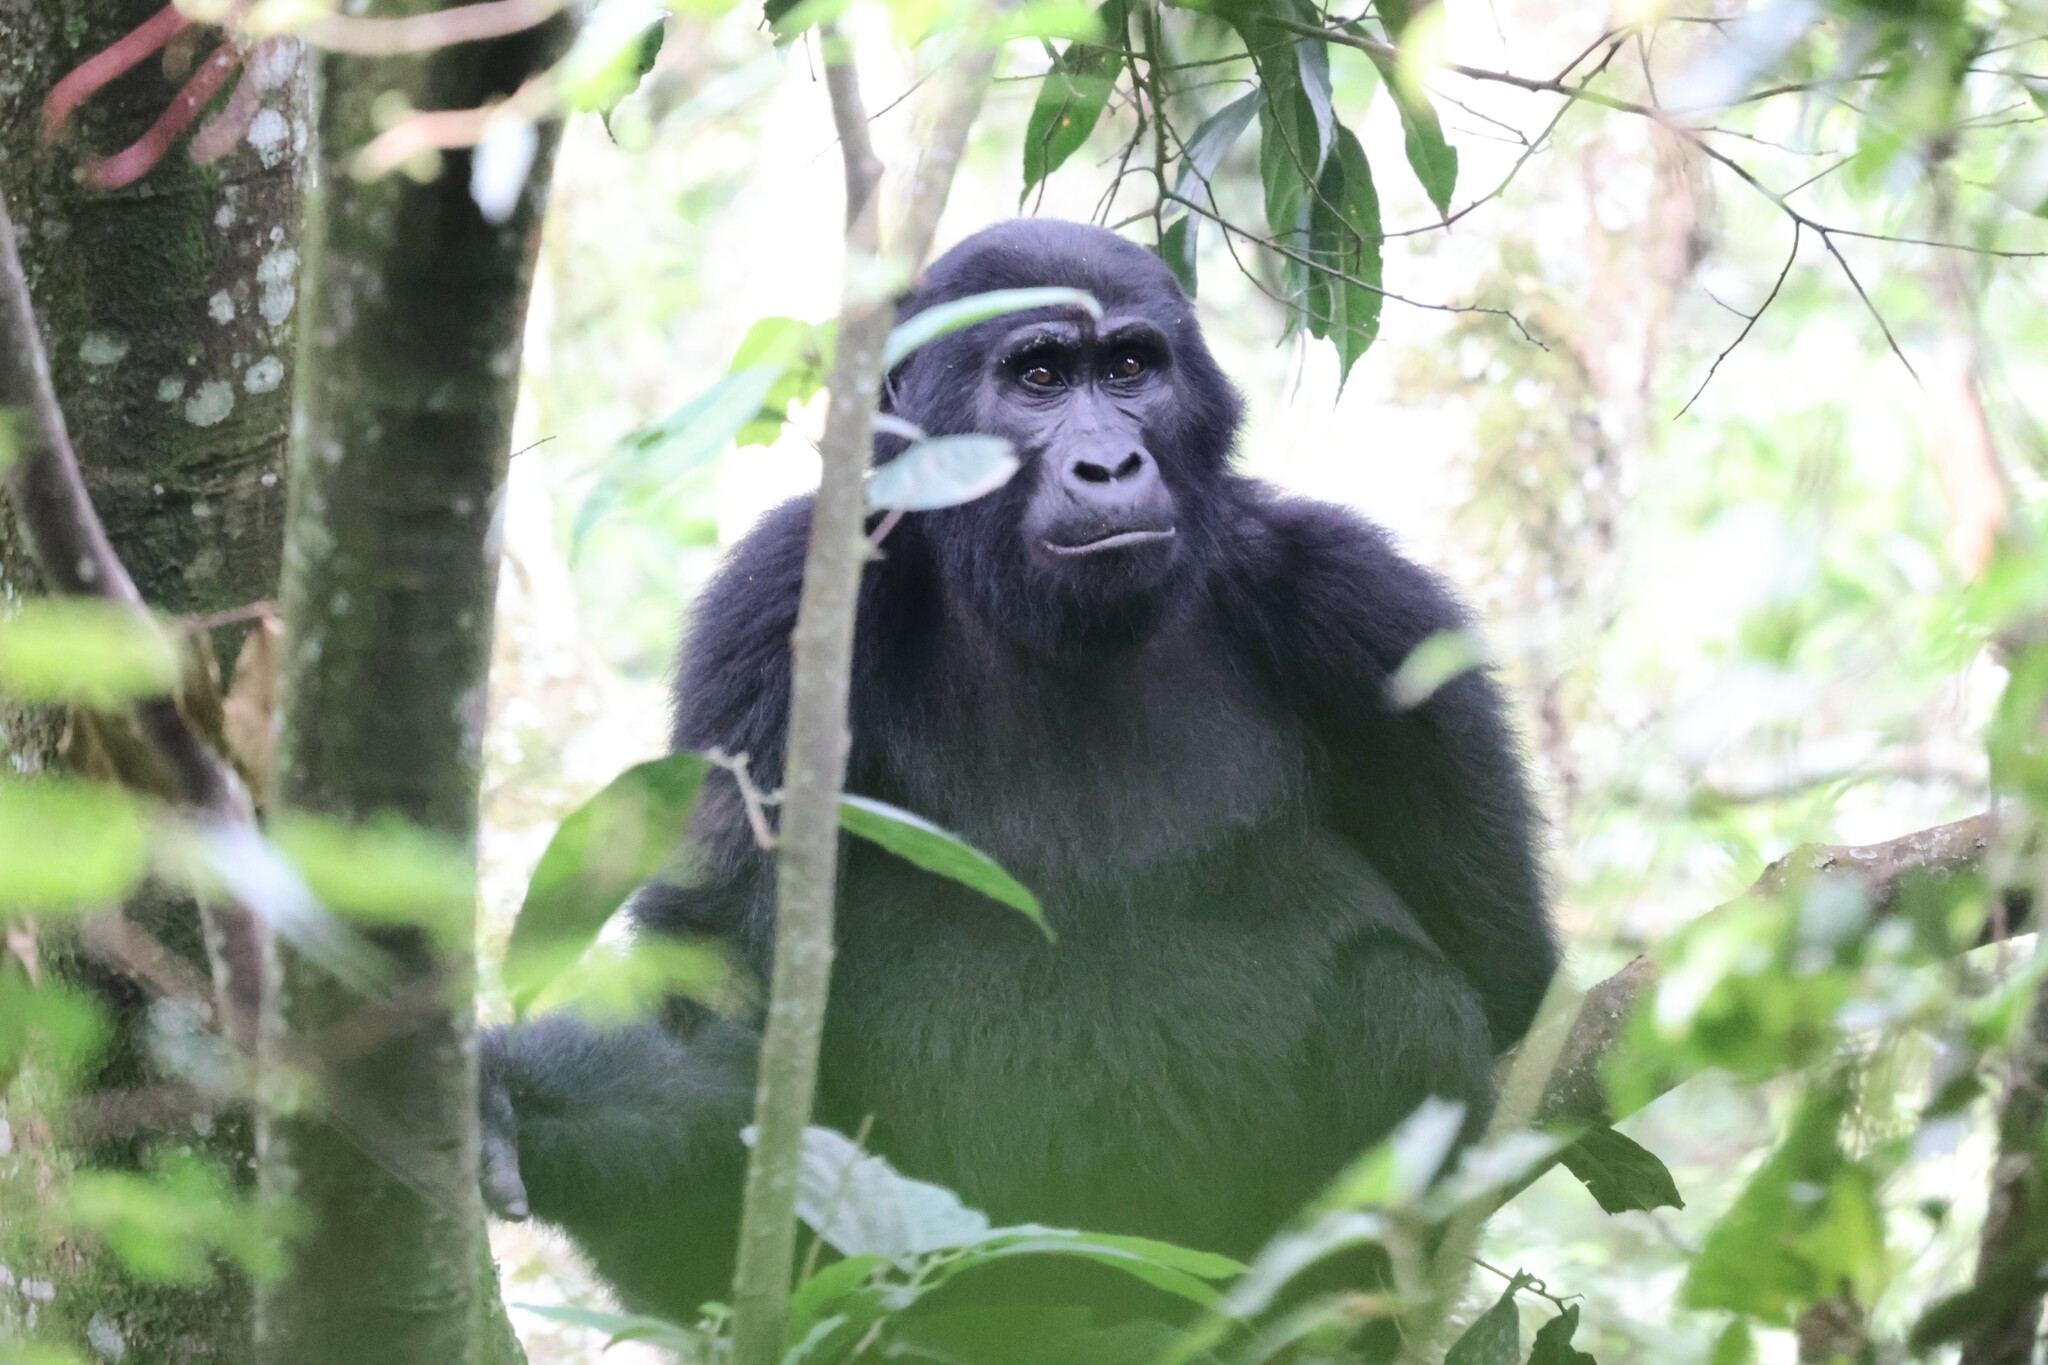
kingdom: Animalia
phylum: Chordata
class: Mammalia
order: Primates
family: Hominidae
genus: Gorilla
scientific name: Gorilla beringei
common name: Eastern gorilla
